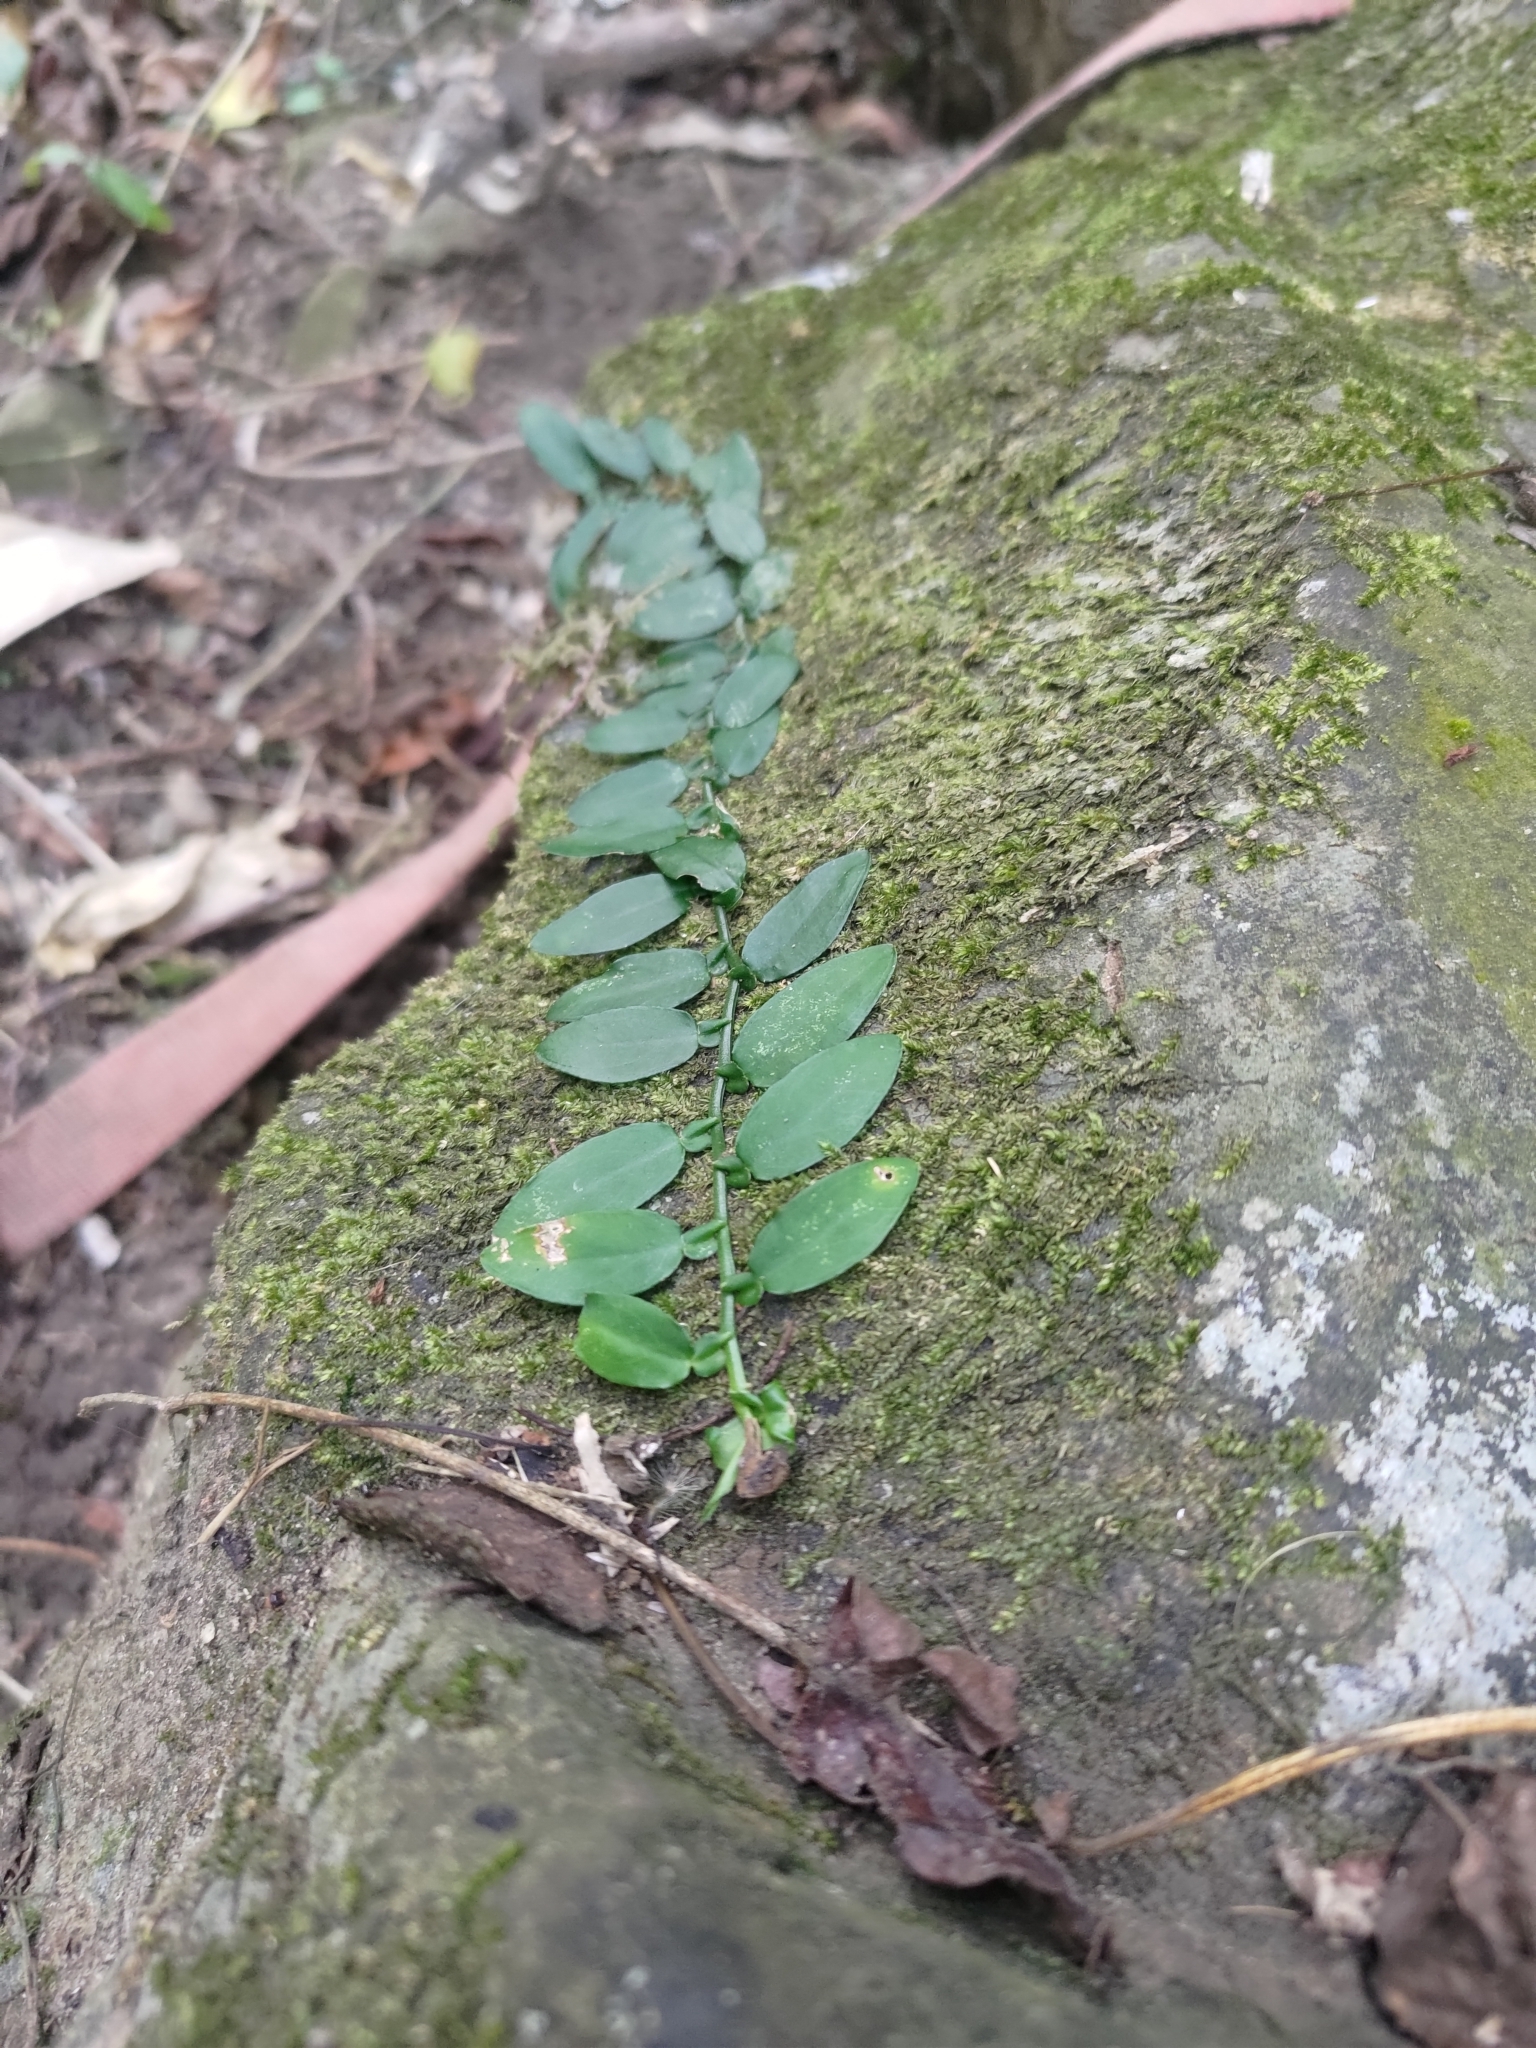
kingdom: Plantae
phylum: Tracheophyta
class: Liliopsida
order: Alismatales
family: Araceae
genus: Pothos
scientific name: Pothos chinensis
